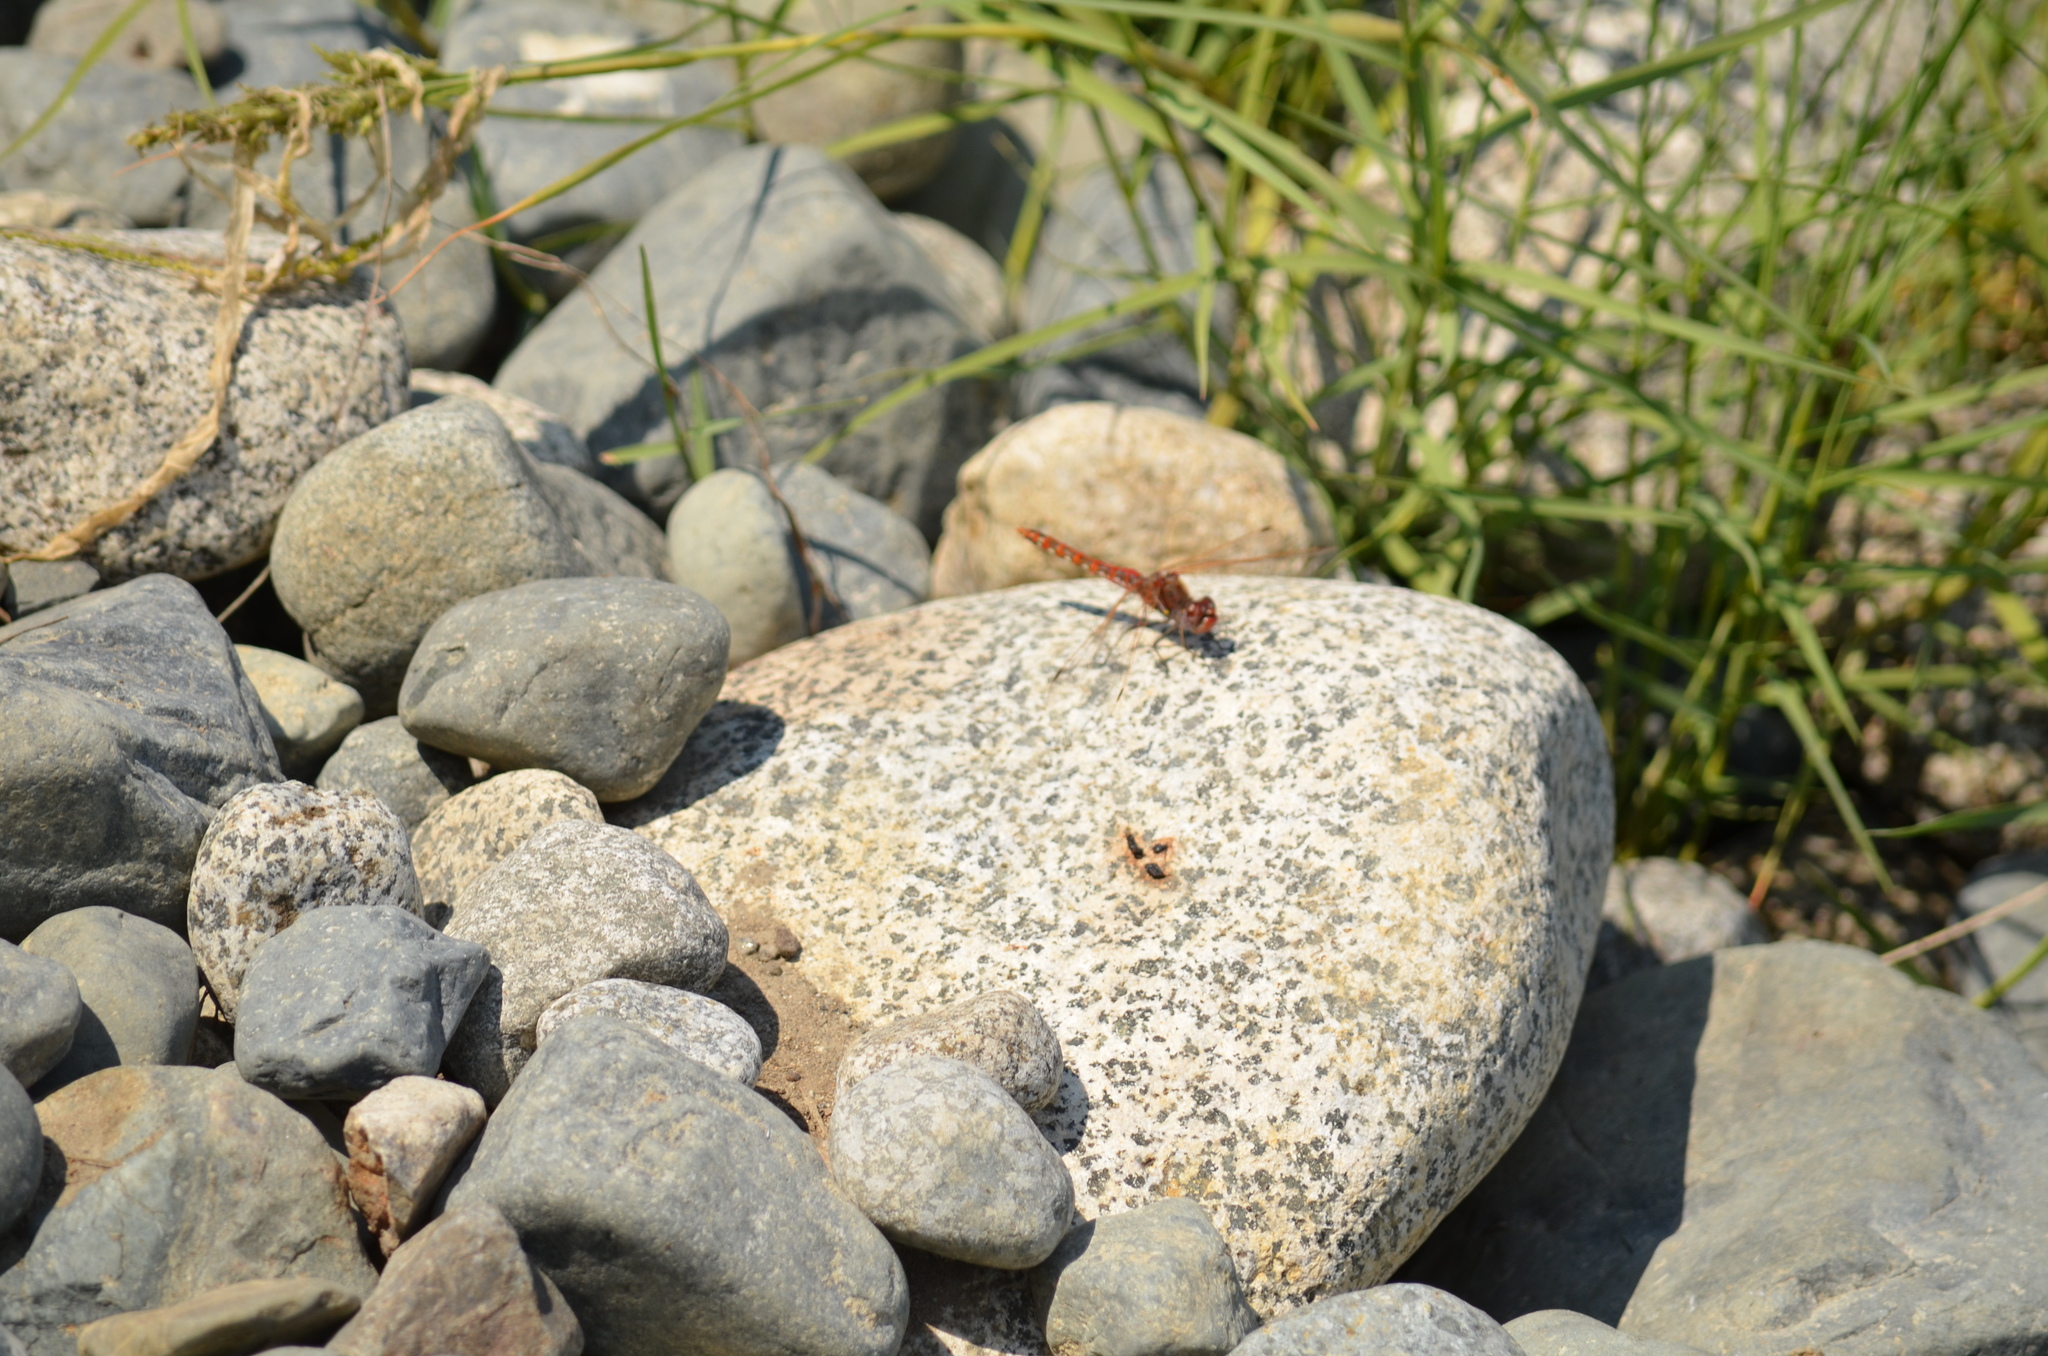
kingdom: Animalia
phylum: Arthropoda
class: Insecta
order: Odonata
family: Libellulidae
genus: Sympetrum
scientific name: Sympetrum corruptum
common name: Variegated meadowhawk
